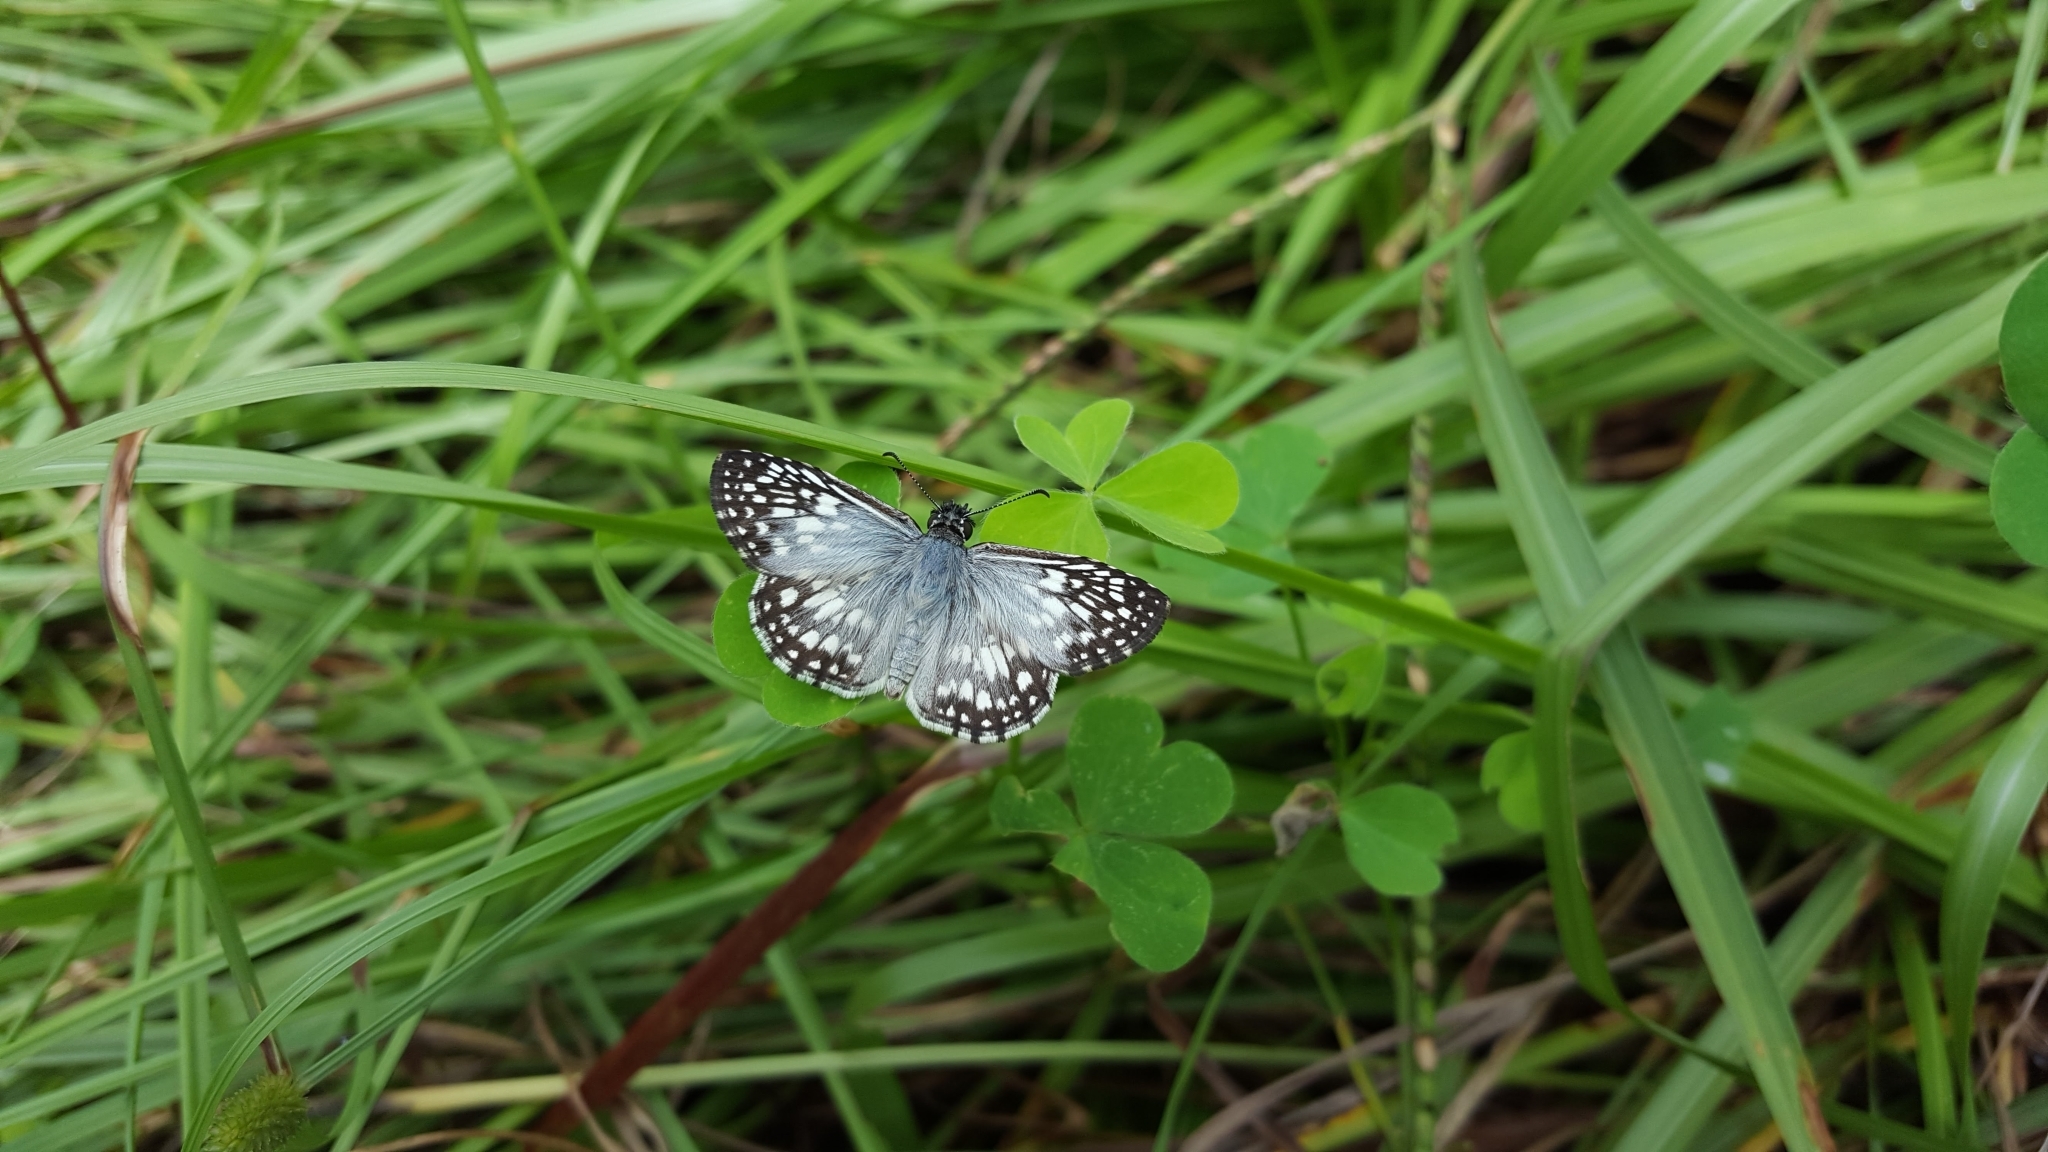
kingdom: Animalia
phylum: Arthropoda
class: Insecta
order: Lepidoptera
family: Hesperiidae
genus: Pyrgus
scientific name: Pyrgus oileus
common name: Tropical checkered-skipper
